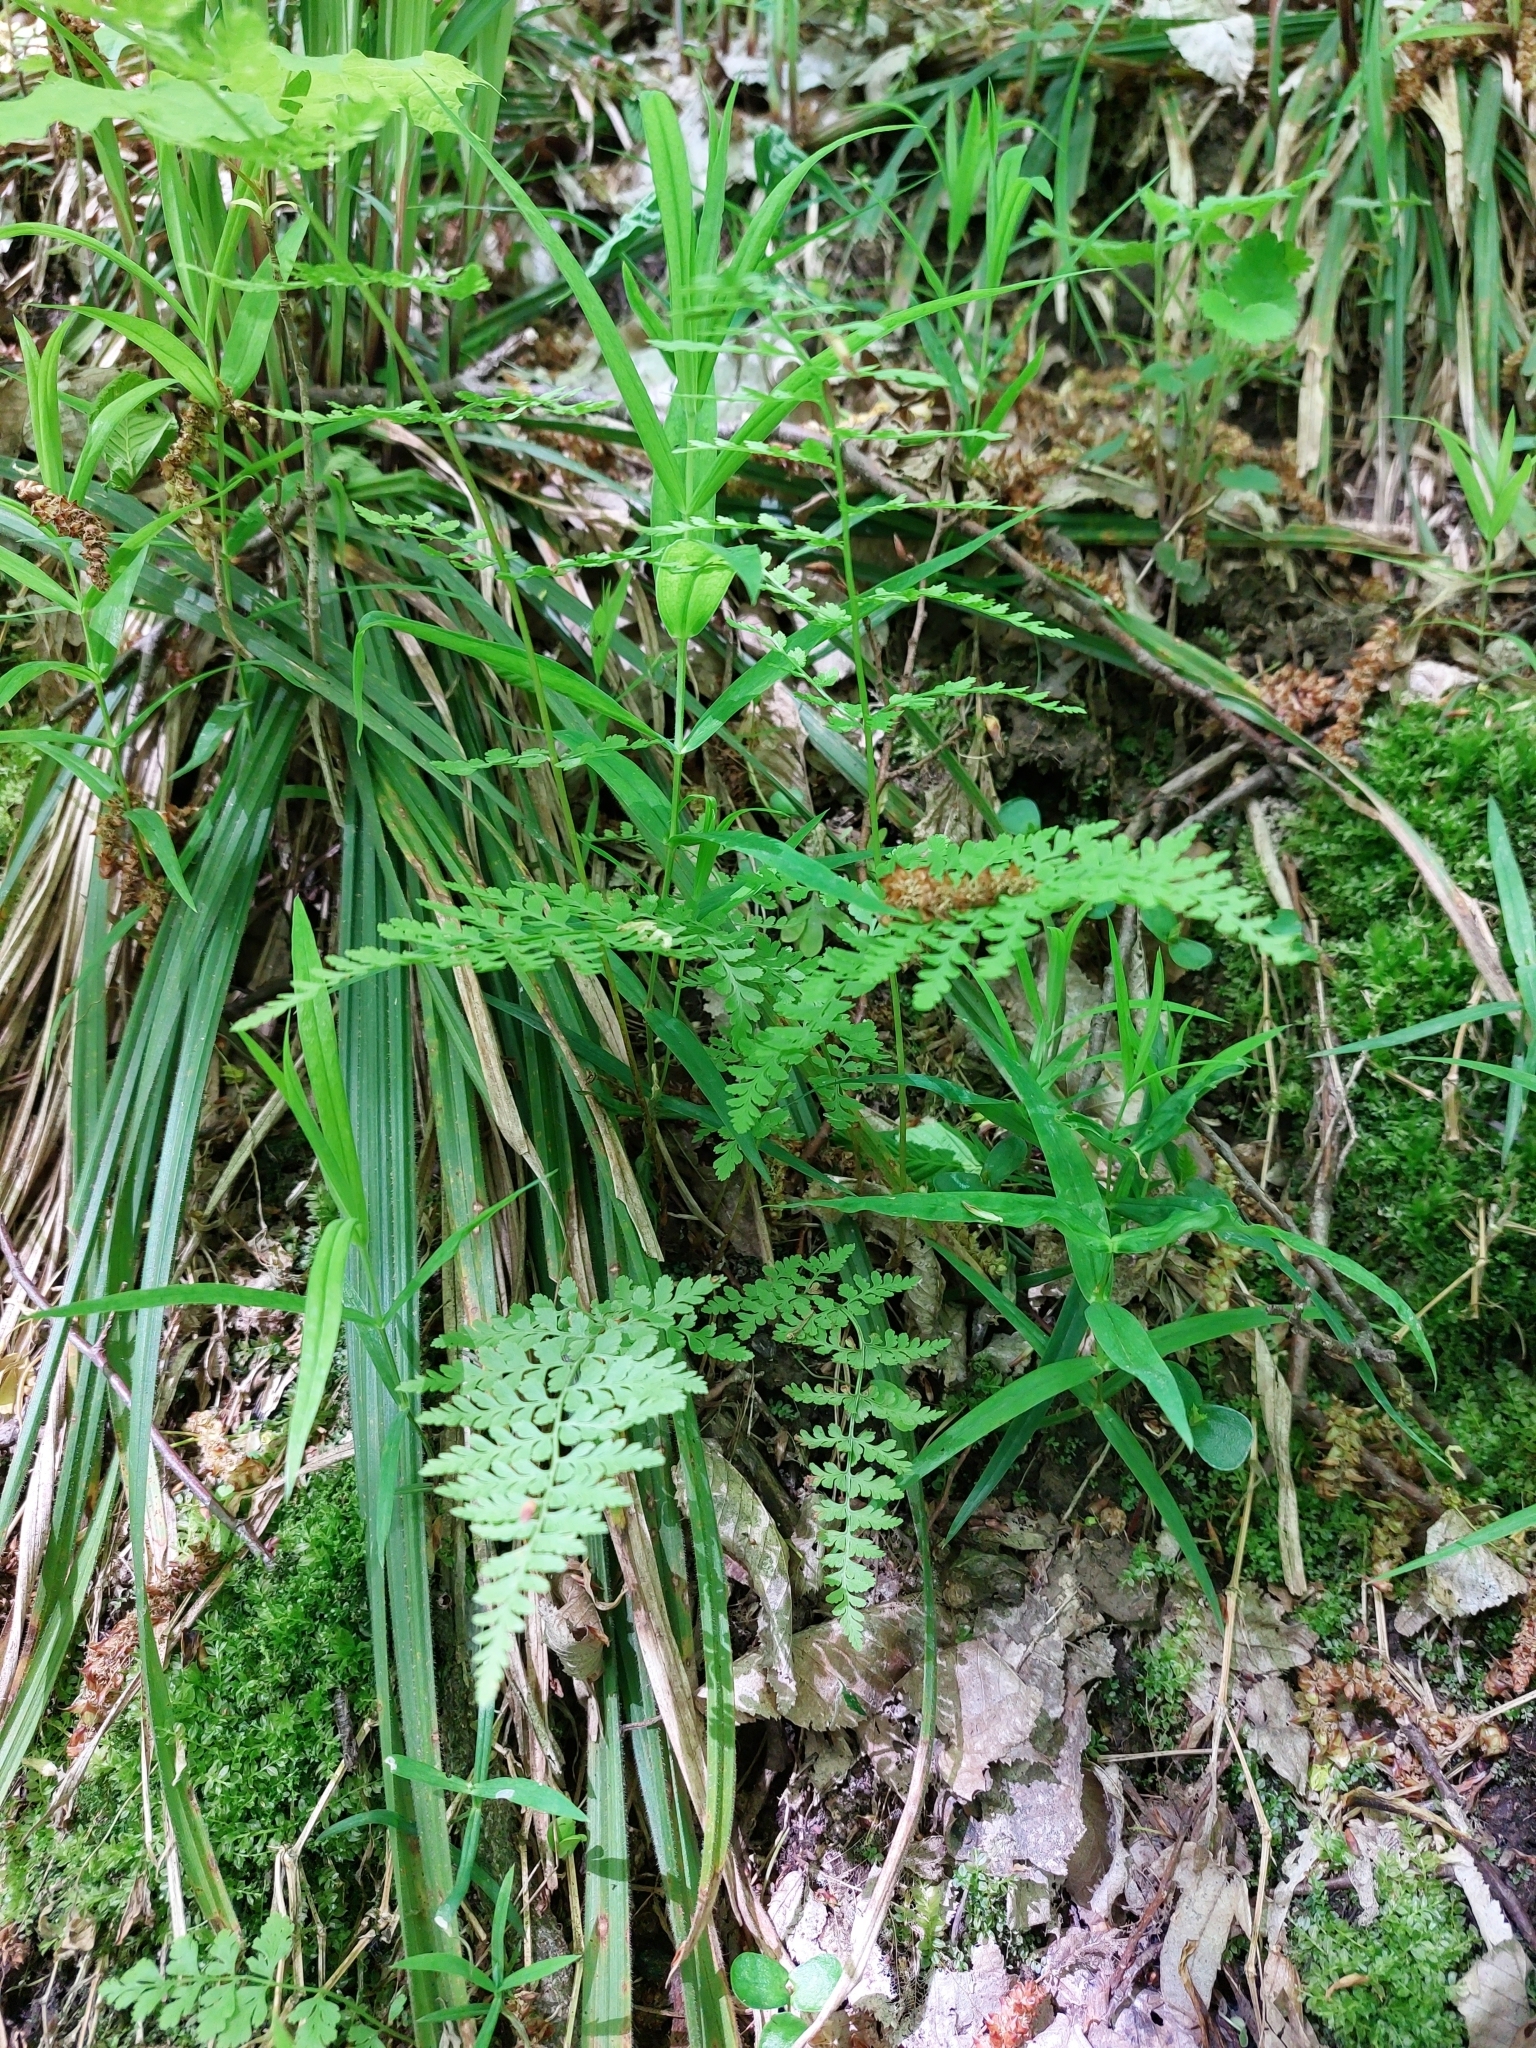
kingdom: Plantae
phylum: Tracheophyta
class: Polypodiopsida
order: Polypodiales
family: Cystopteridaceae
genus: Cystopteris
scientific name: Cystopteris fragilis
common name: Brittle bladder fern
